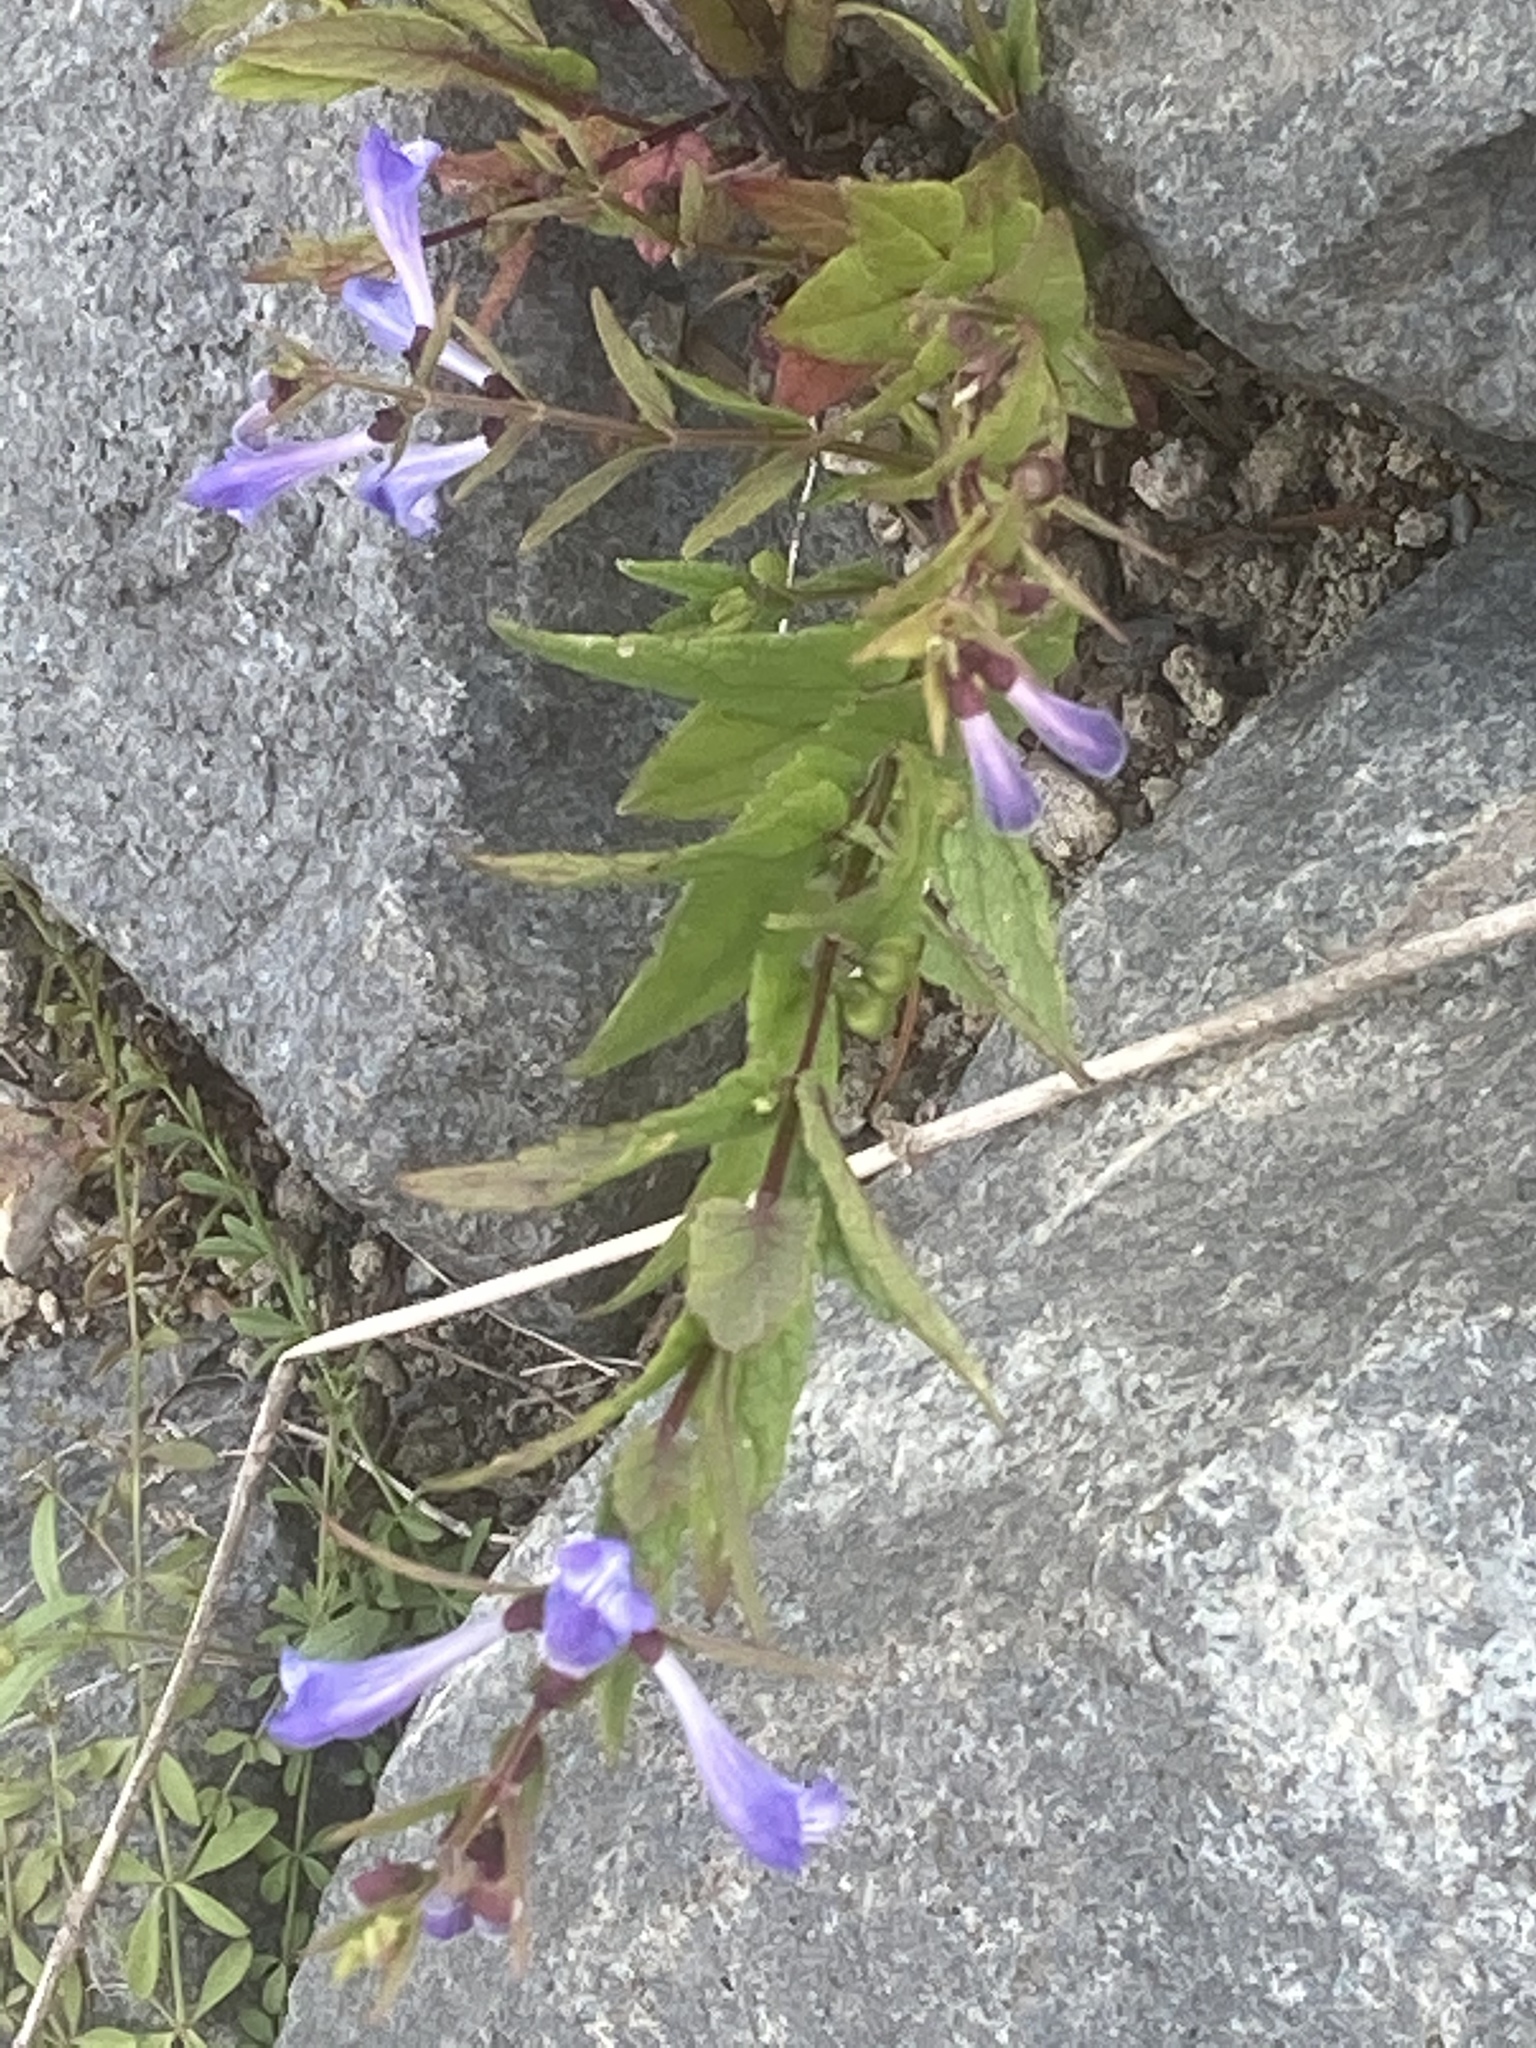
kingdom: Plantae
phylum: Tracheophyta
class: Magnoliopsida
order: Lamiales
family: Lamiaceae
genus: Scutellaria
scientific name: Scutellaria galericulata
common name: Skullcap
